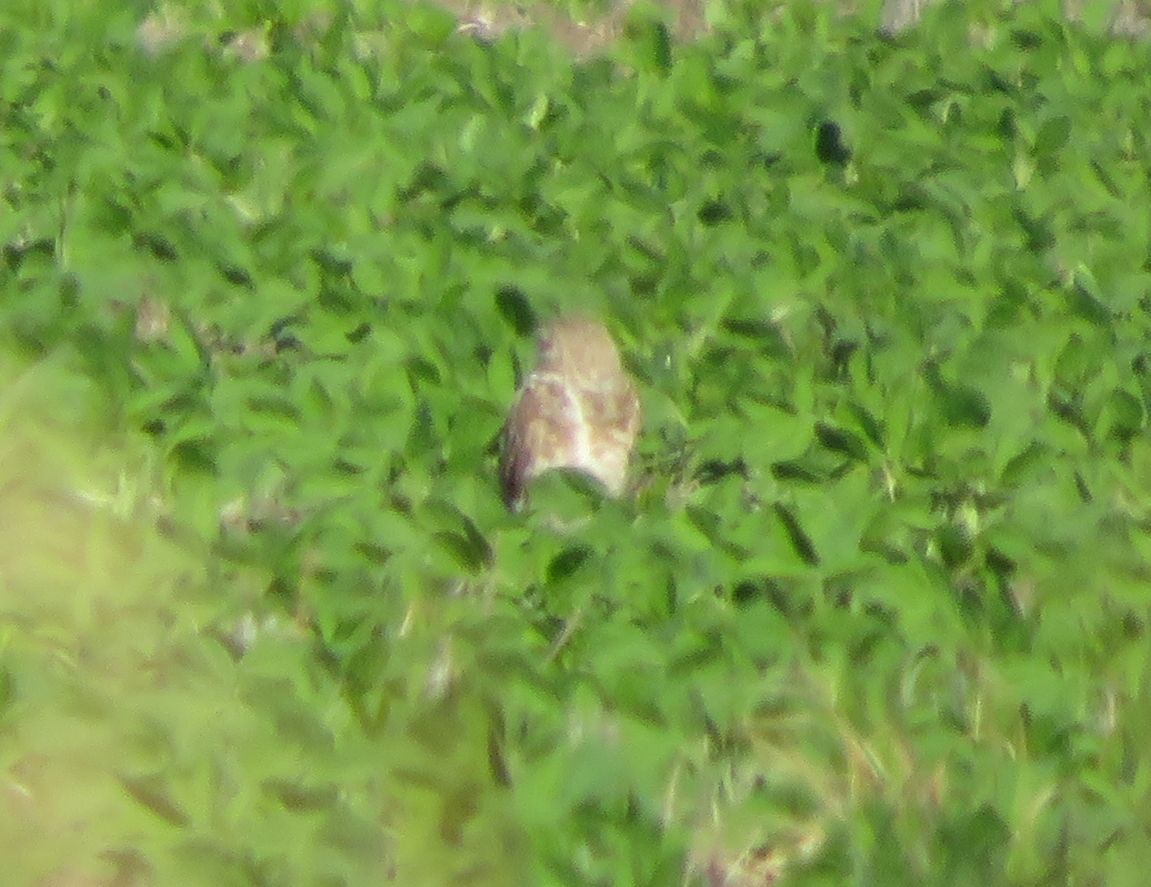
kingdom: Animalia
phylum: Chordata
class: Aves
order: Strigiformes
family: Strigidae
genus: Athene
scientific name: Athene cunicularia
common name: Burrowing owl
